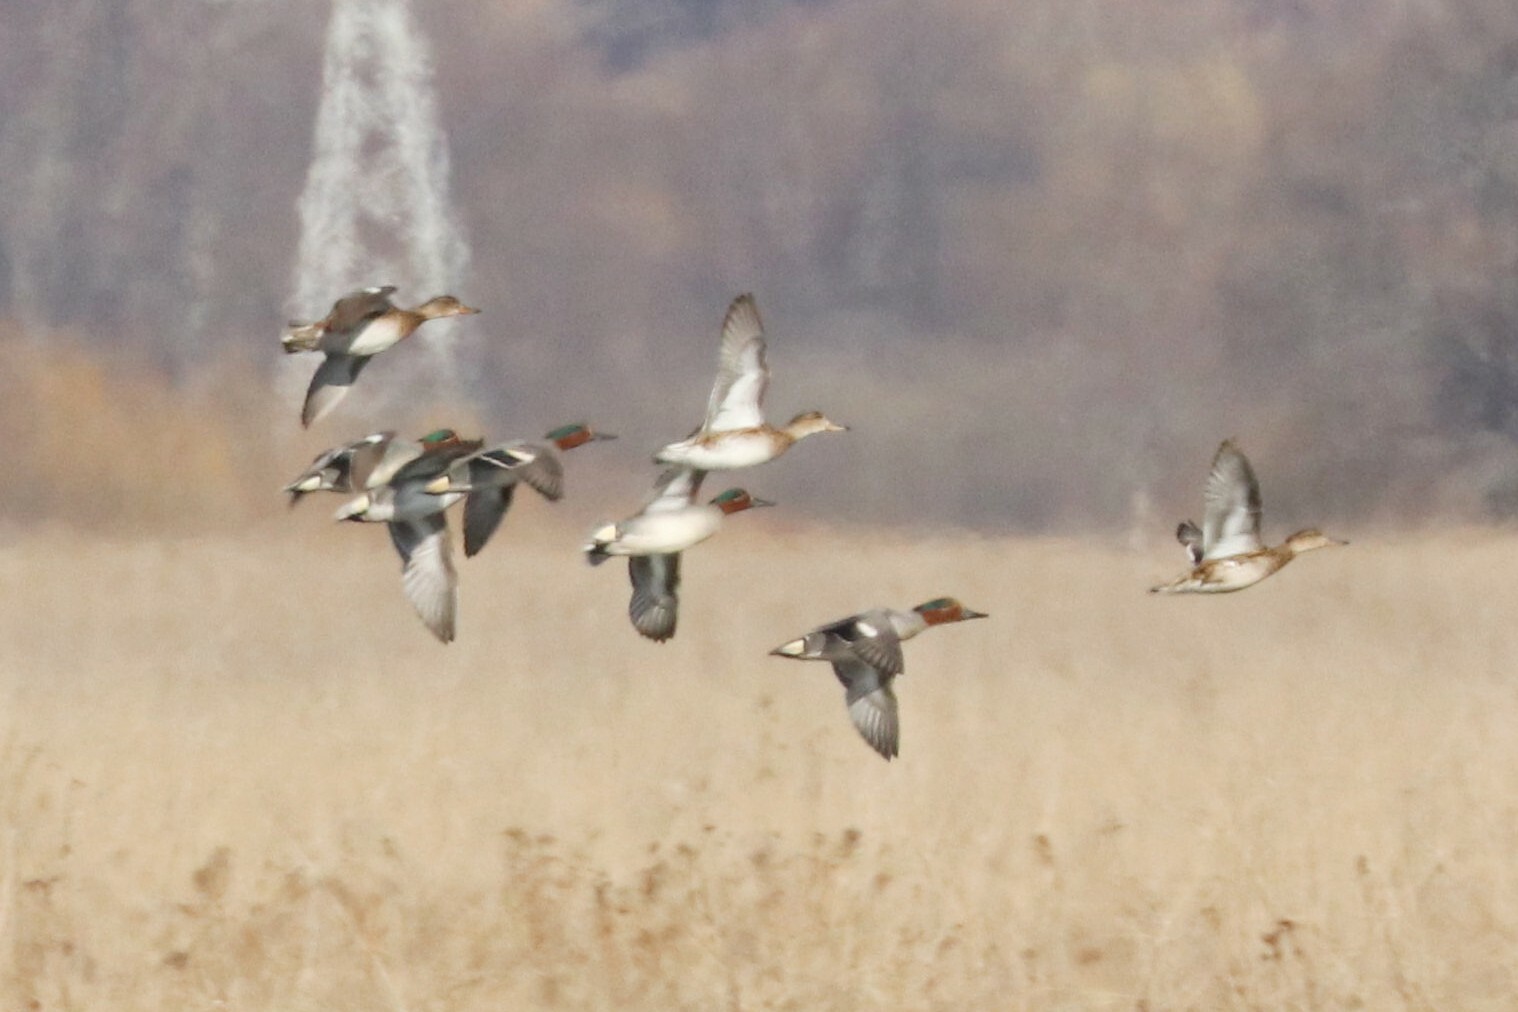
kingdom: Animalia
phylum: Chordata
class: Aves
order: Anseriformes
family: Anatidae
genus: Anas
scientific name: Anas crecca
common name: Eurasian teal
